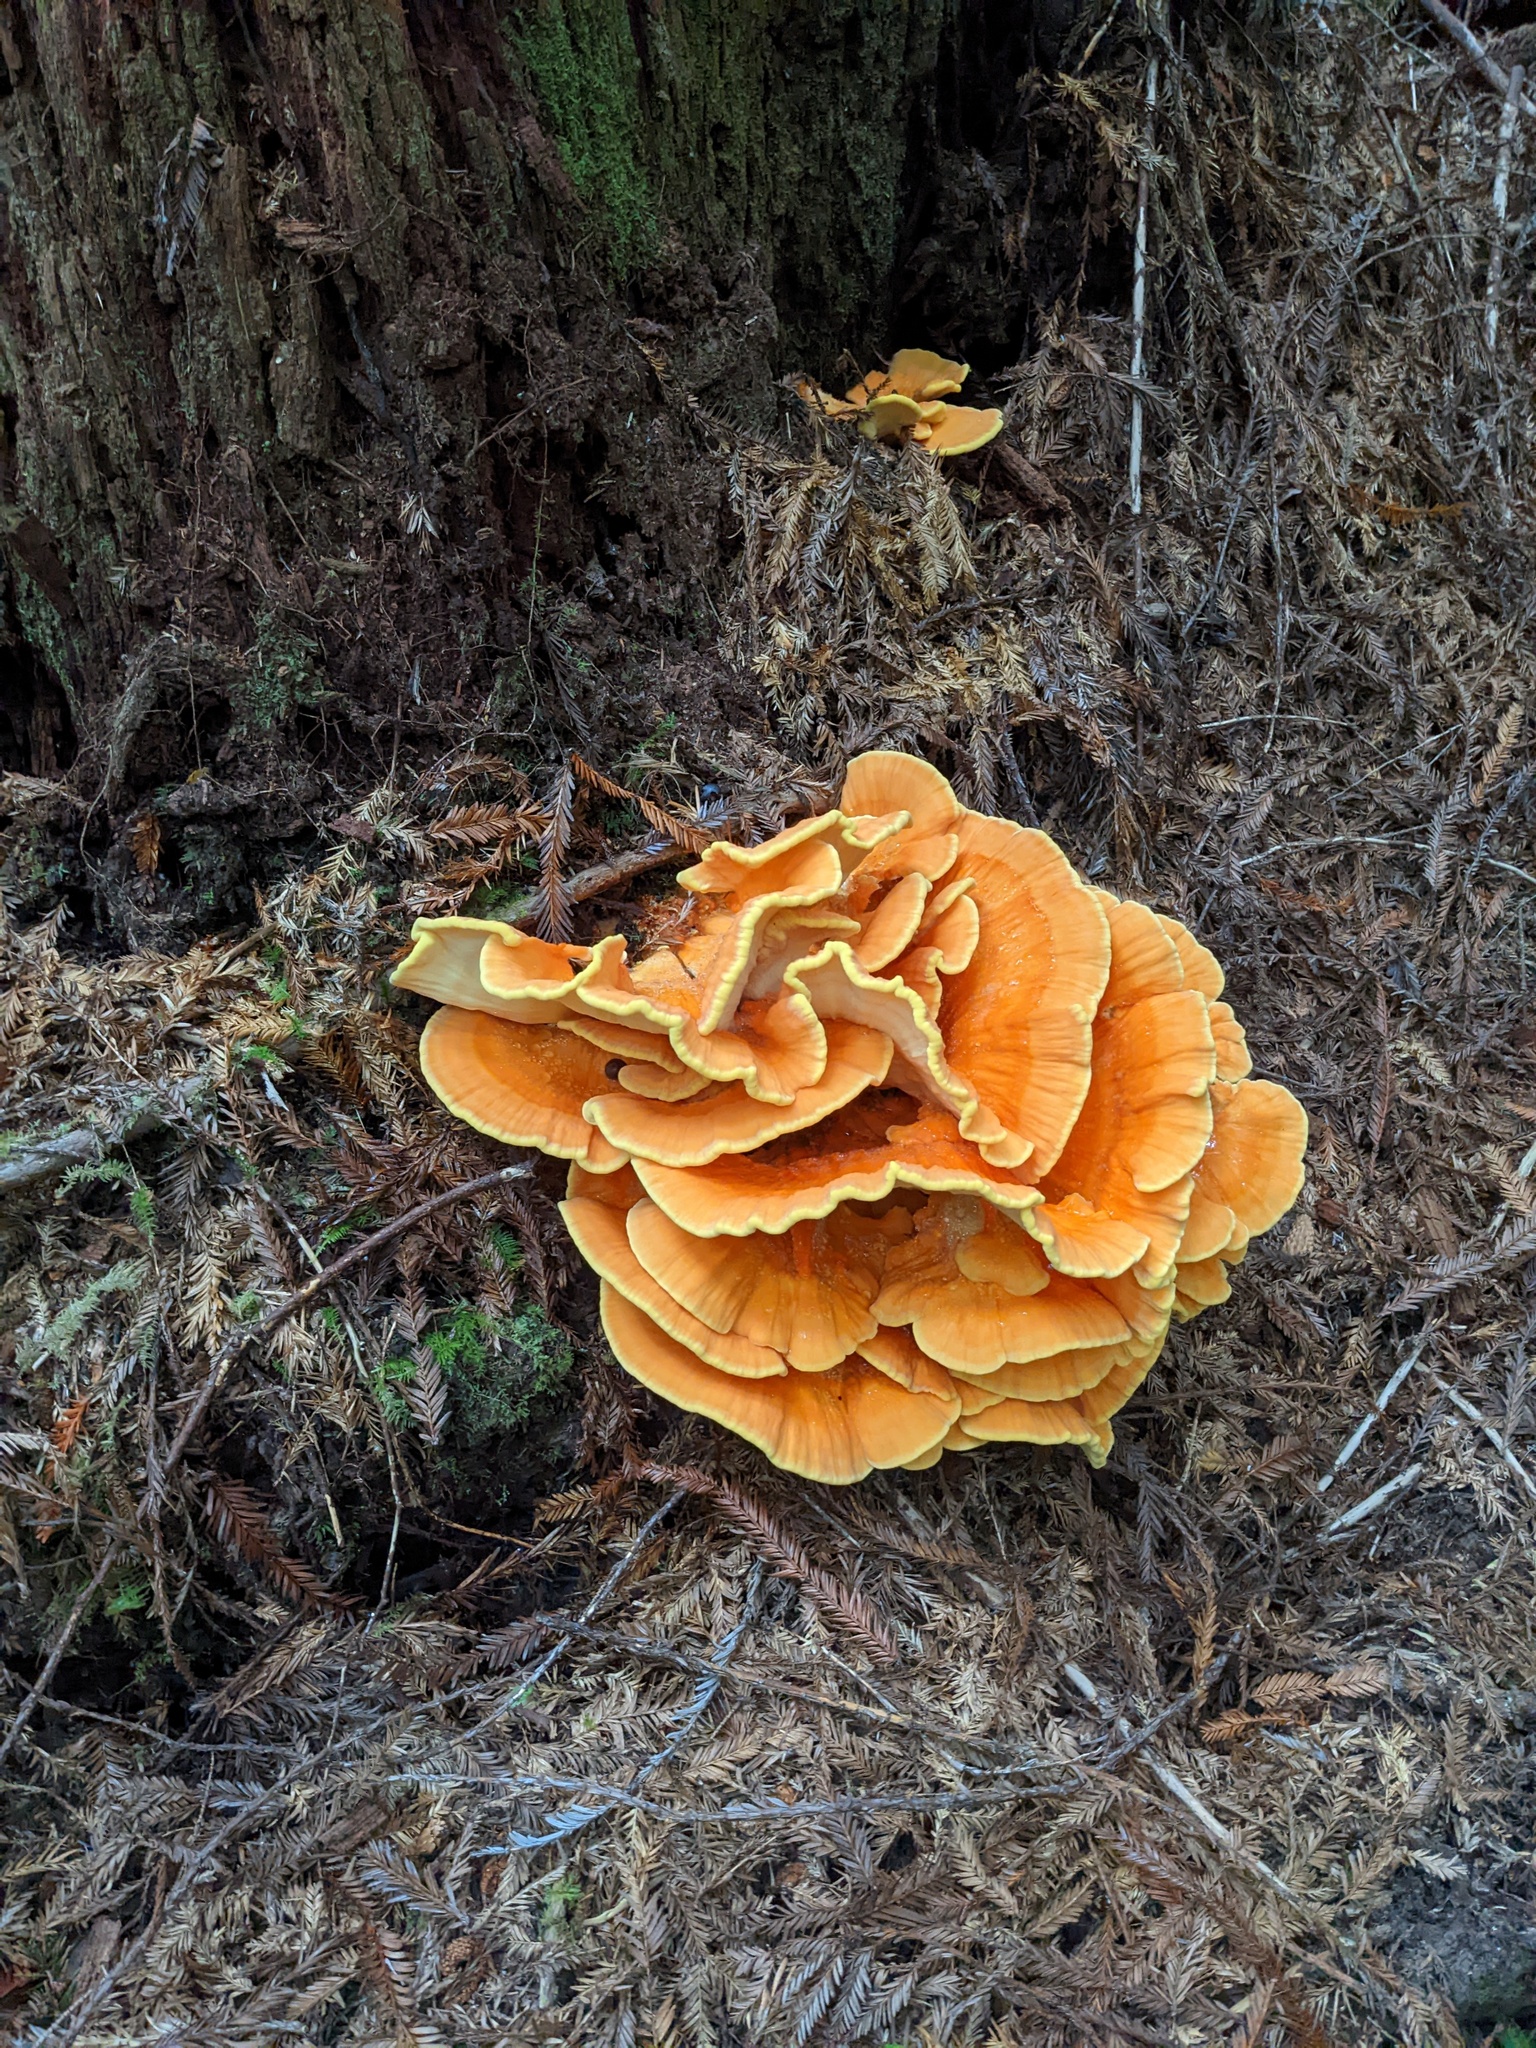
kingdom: Fungi
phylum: Basidiomycota
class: Agaricomycetes
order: Polyporales
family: Laetiporaceae
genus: Laetiporus
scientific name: Laetiporus conifericola
